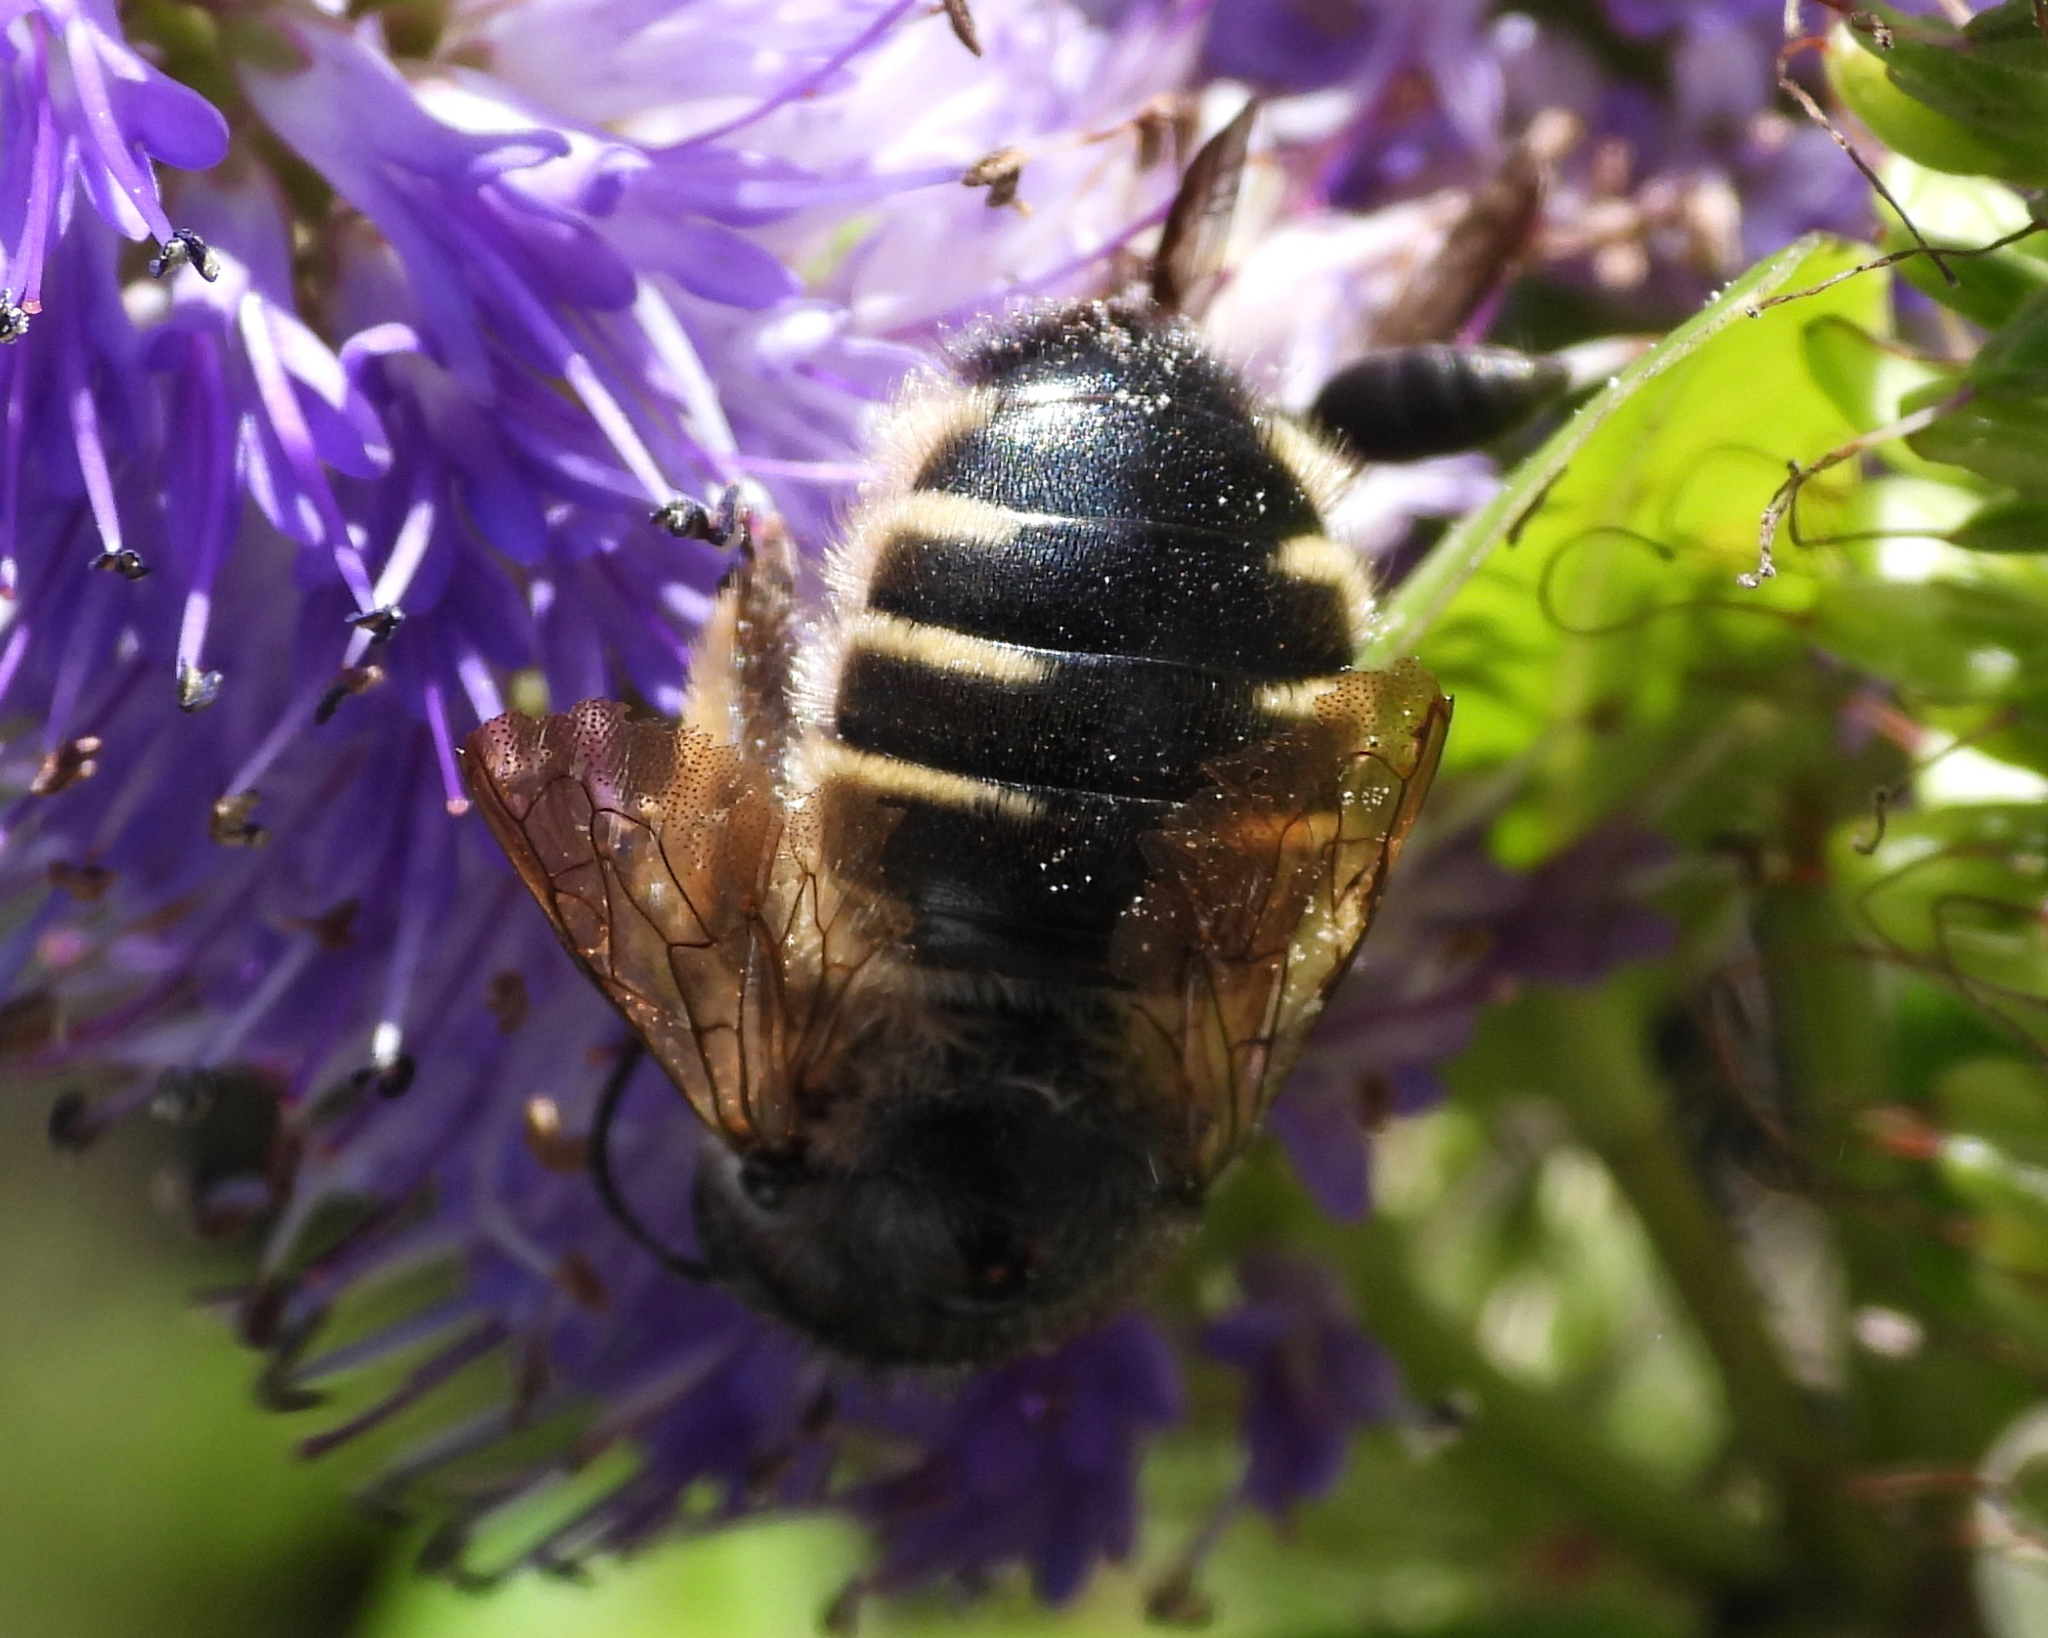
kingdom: Animalia
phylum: Arthropoda
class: Insecta
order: Hymenoptera
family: Apidae
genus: Xylocopa
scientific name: Xylocopa tabaniformis
